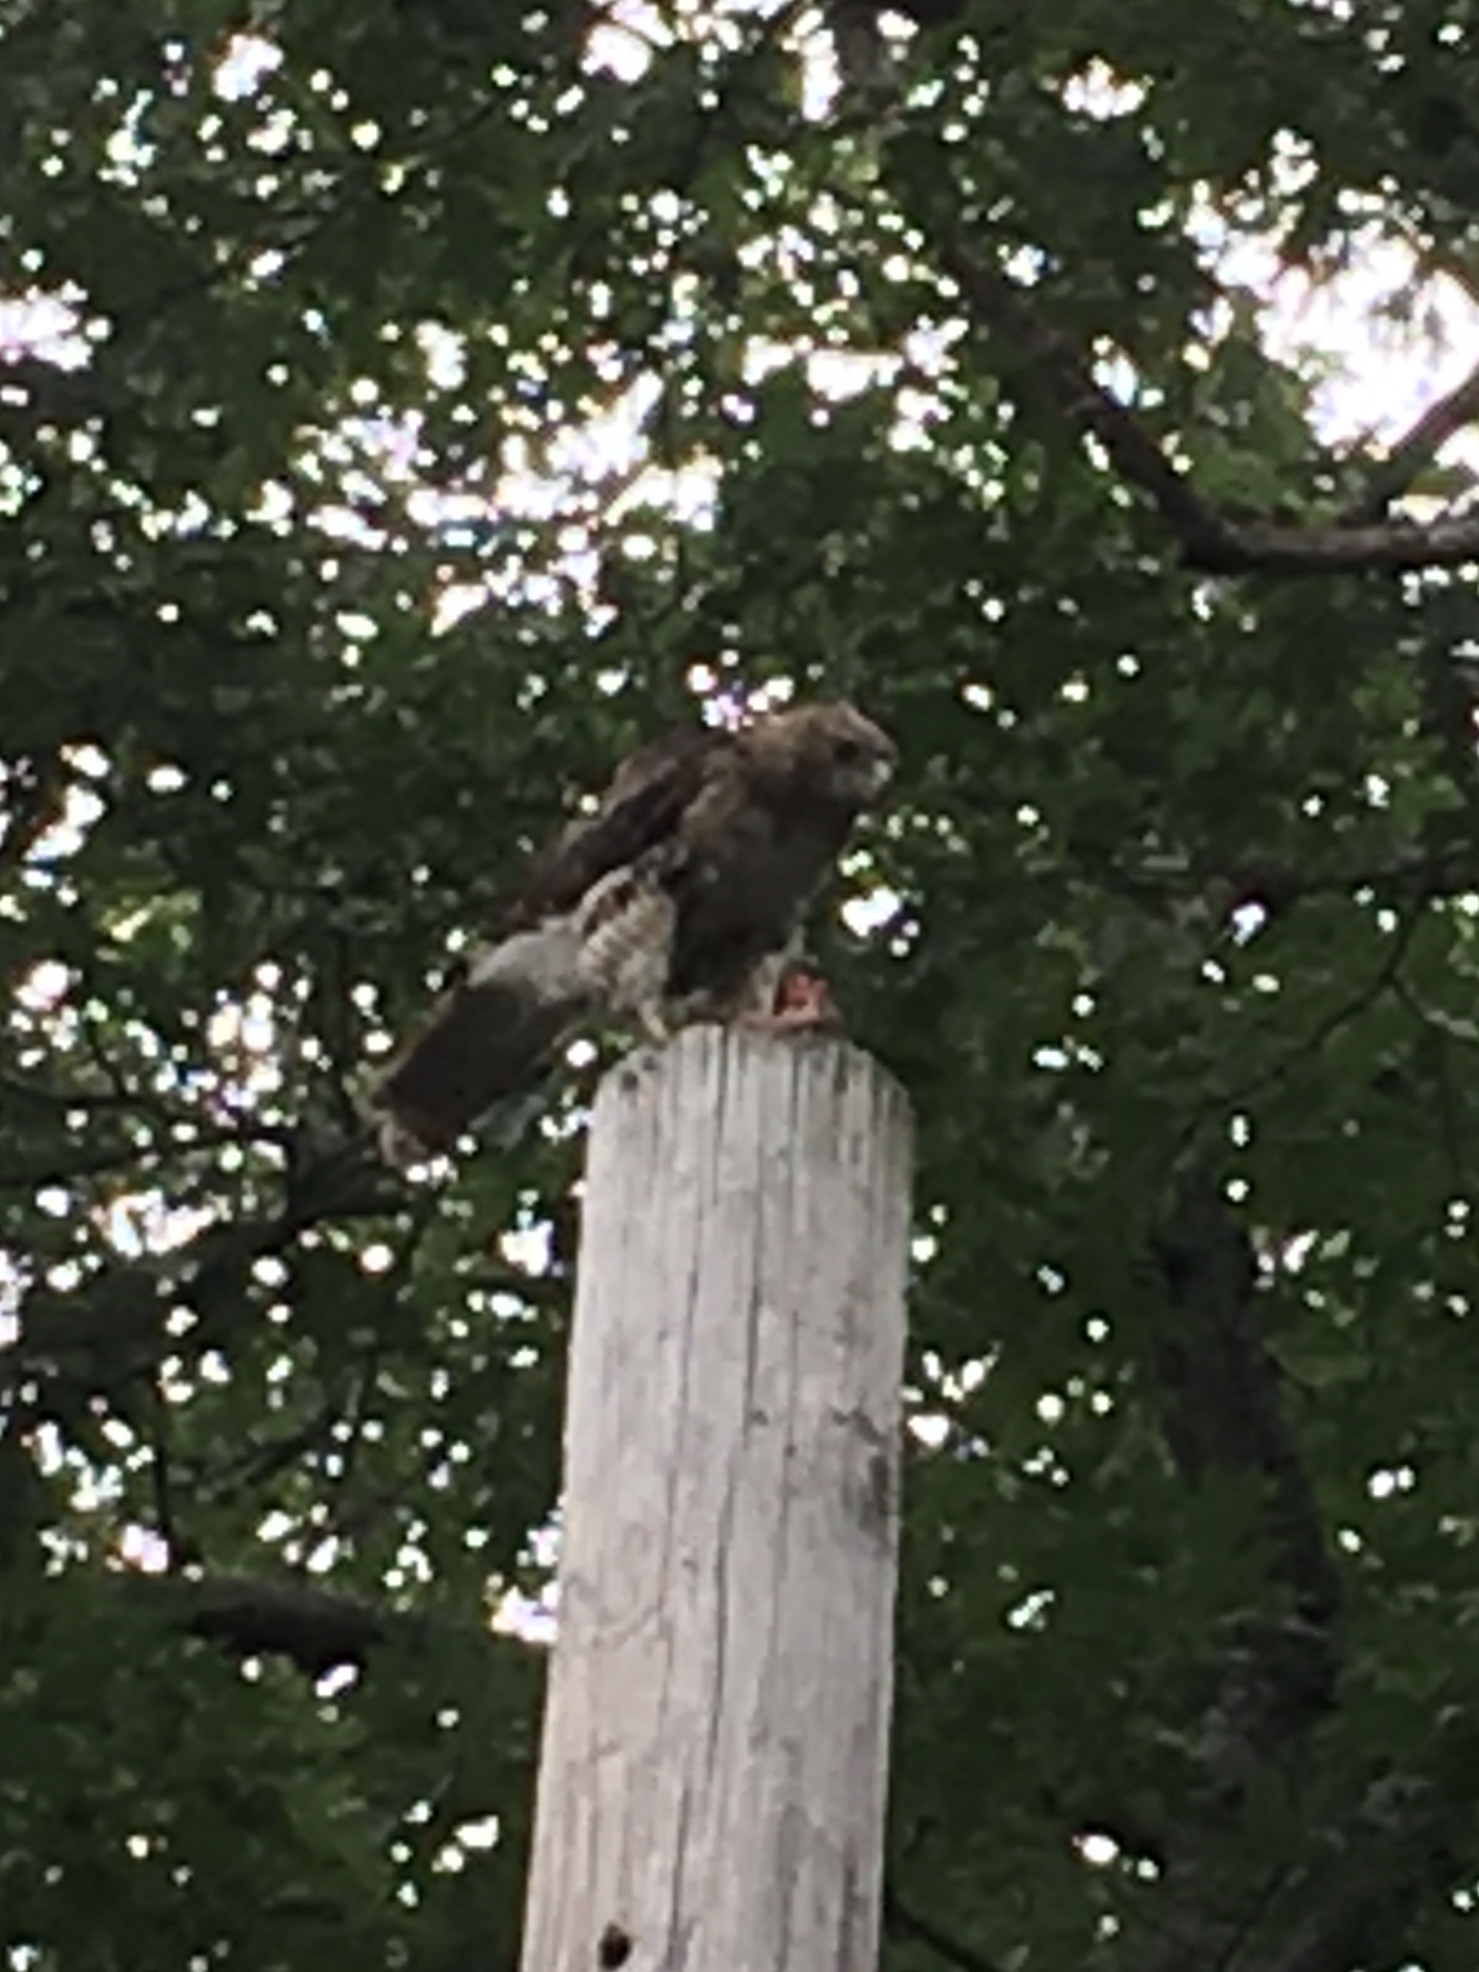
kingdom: Animalia
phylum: Chordata
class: Aves
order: Accipitriformes
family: Accipitridae
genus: Buteo
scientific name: Buteo jamaicensis
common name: Red-tailed hawk
